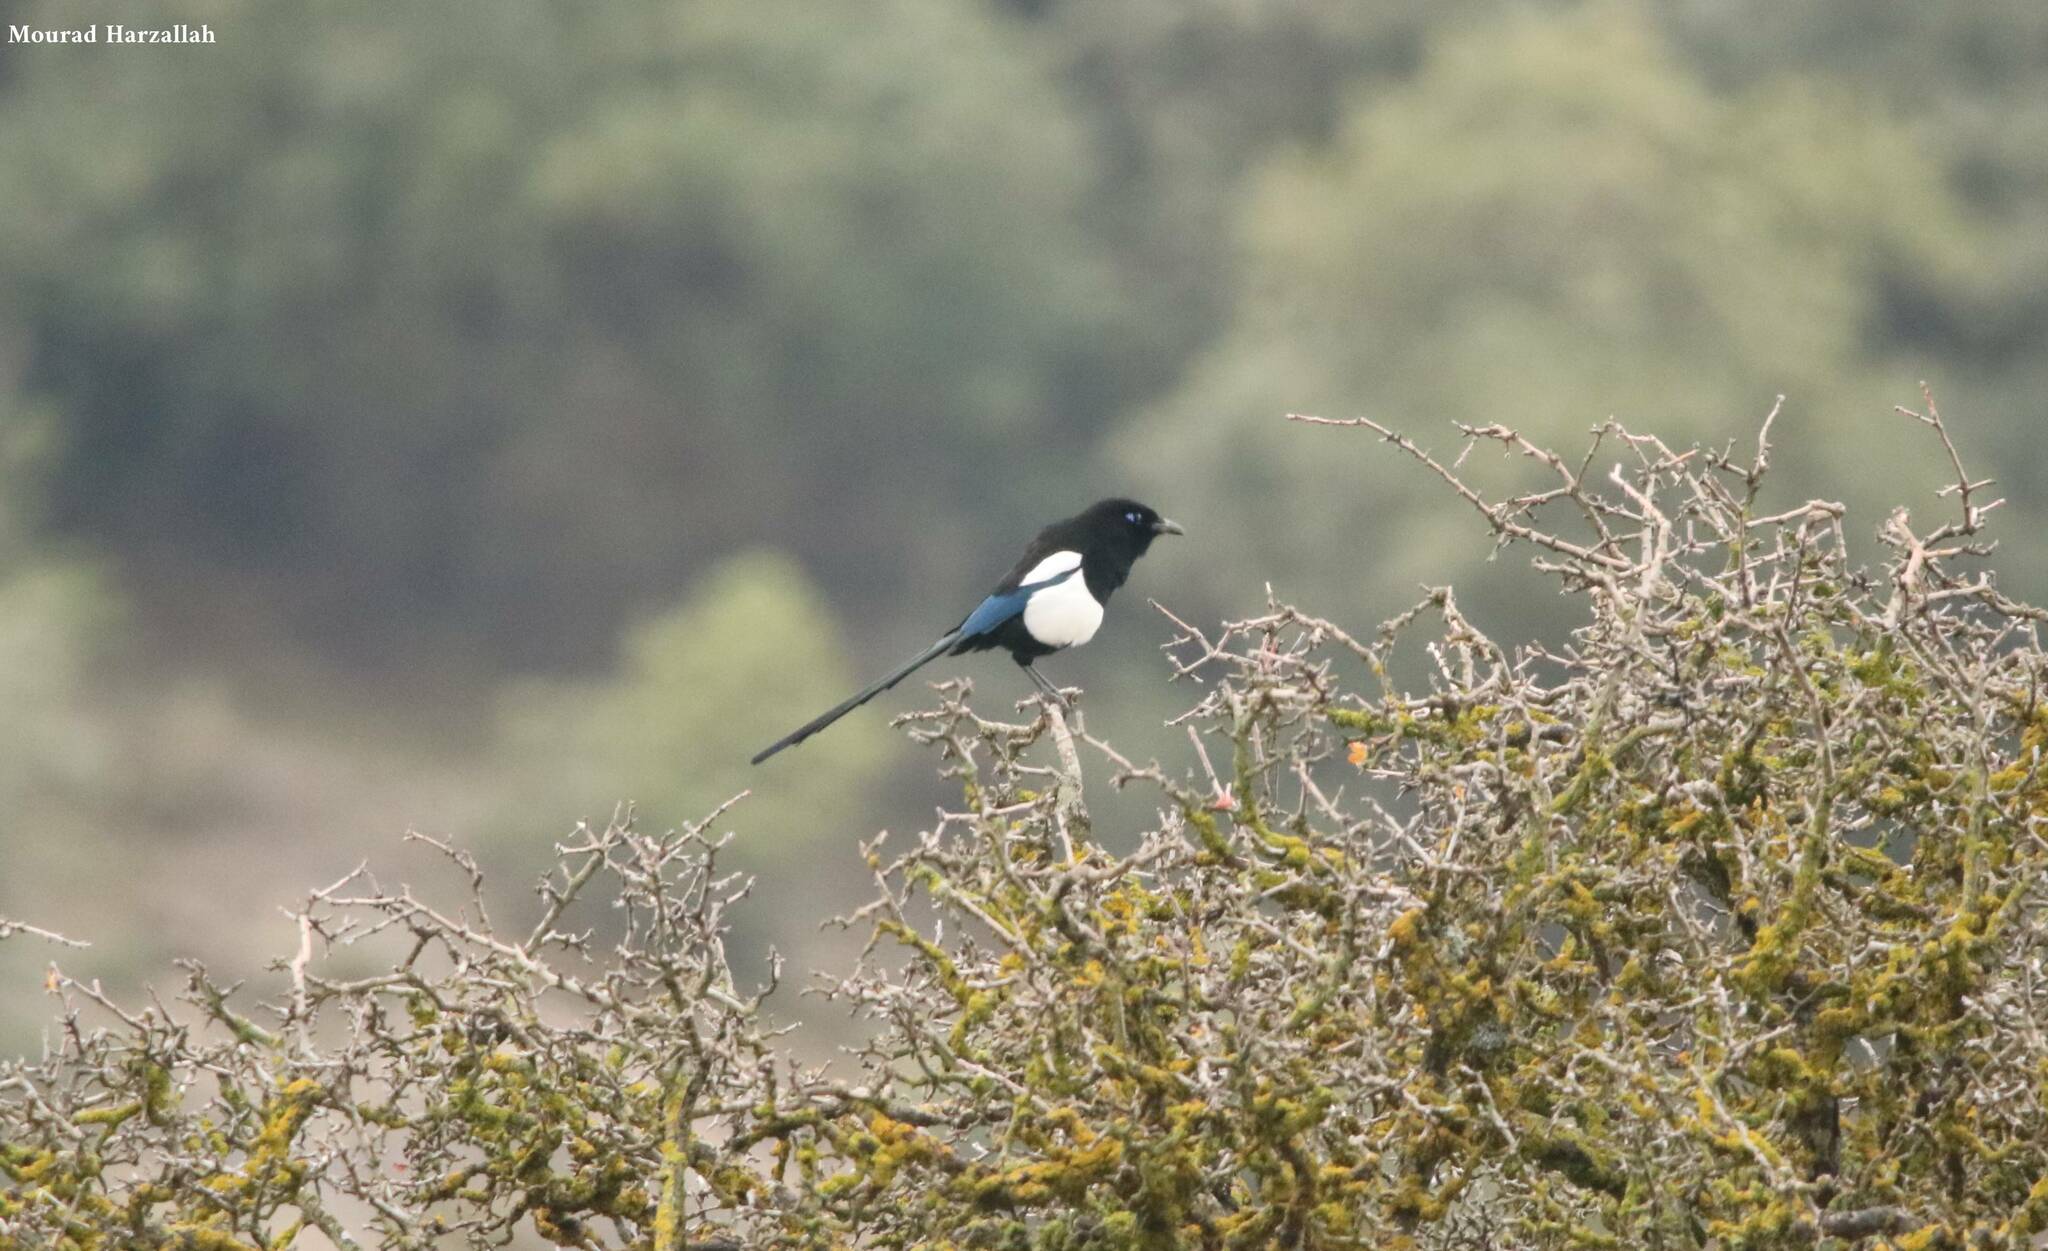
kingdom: Animalia
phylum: Chordata
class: Aves
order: Passeriformes
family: Corvidae
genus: Pica
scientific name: Pica mauritanica
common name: Maghreb magpie
